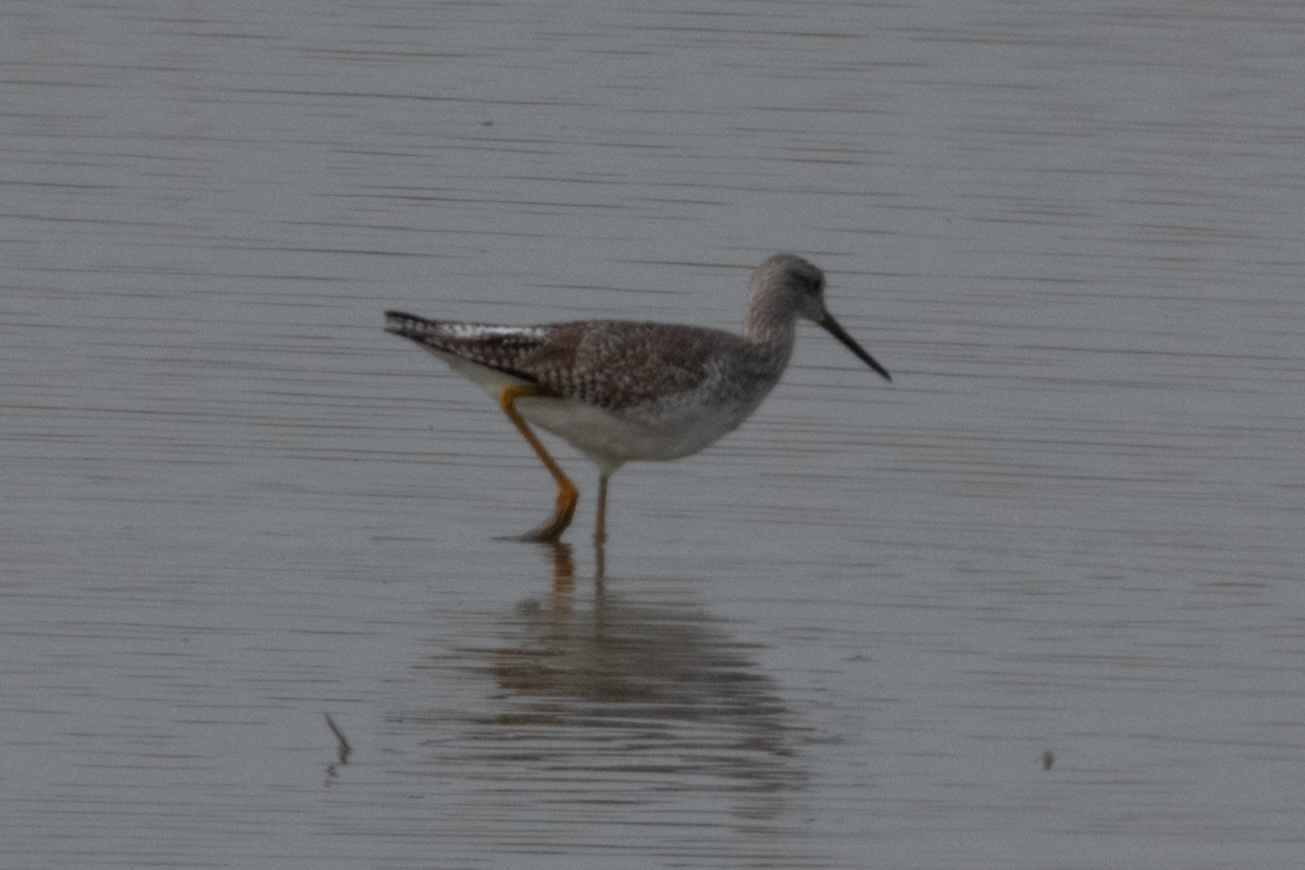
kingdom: Animalia
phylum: Chordata
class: Aves
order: Charadriiformes
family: Scolopacidae
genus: Tringa
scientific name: Tringa melanoleuca
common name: Greater yellowlegs
